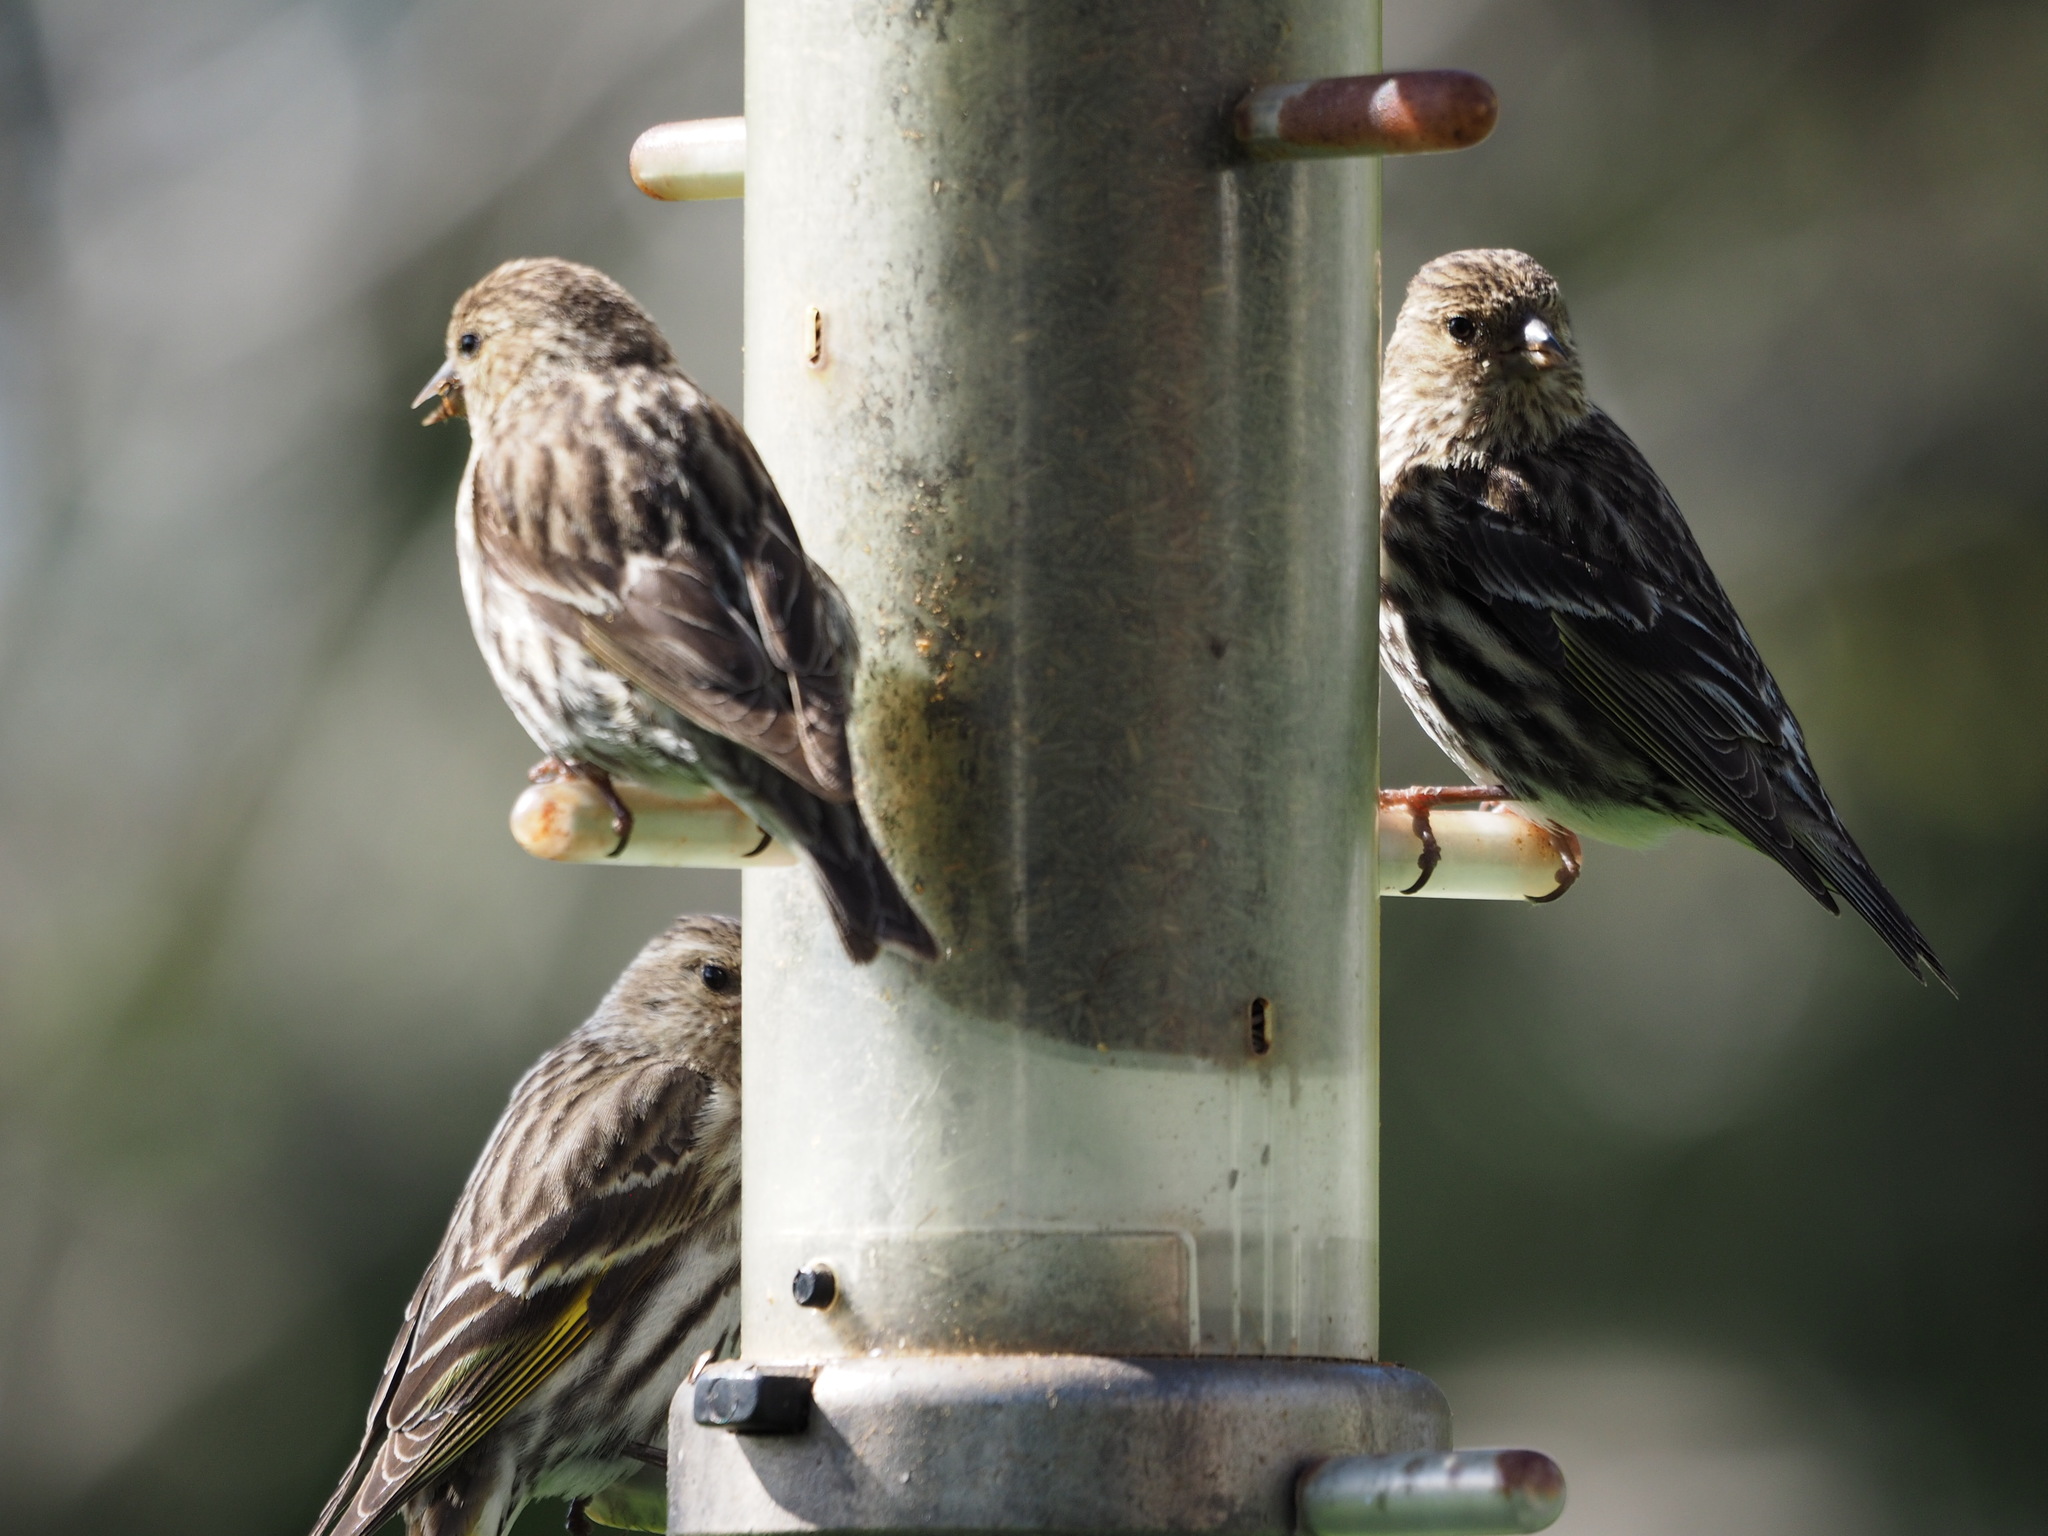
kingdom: Animalia
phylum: Chordata
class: Aves
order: Passeriformes
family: Fringillidae
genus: Spinus
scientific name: Spinus pinus
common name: Pine siskin
